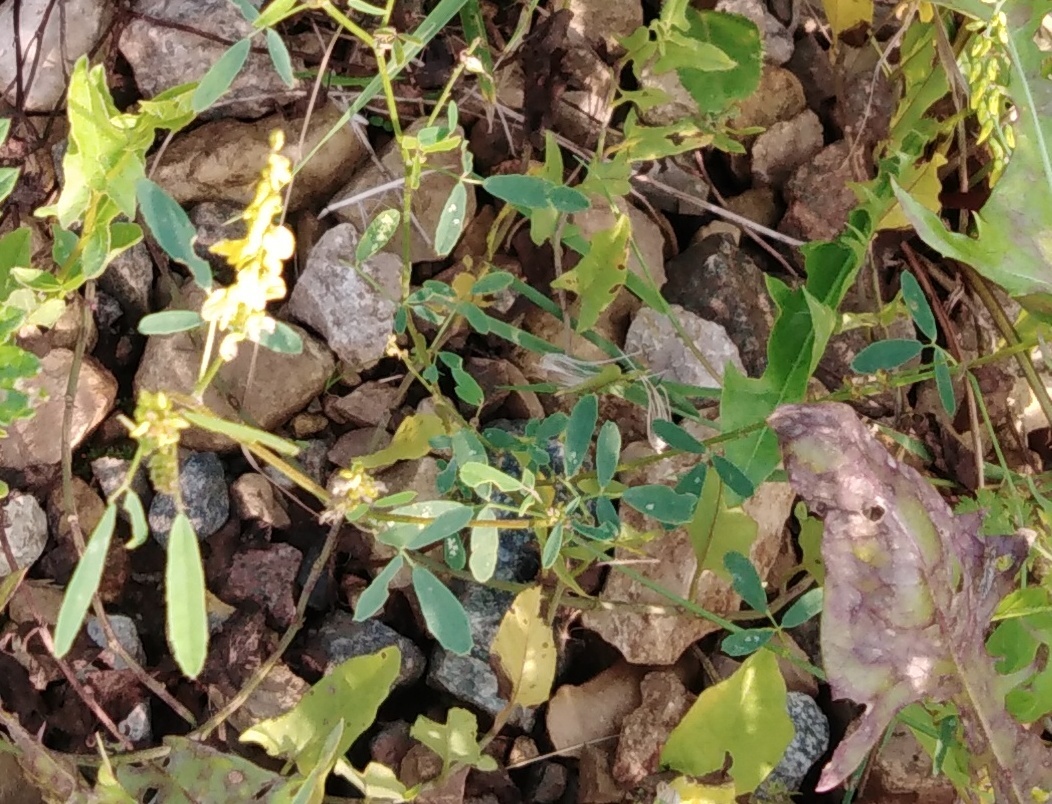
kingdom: Plantae
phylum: Tracheophyta
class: Magnoliopsida
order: Fabales
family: Fabaceae
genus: Melilotus
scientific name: Melilotus officinalis
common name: Sweetclover
